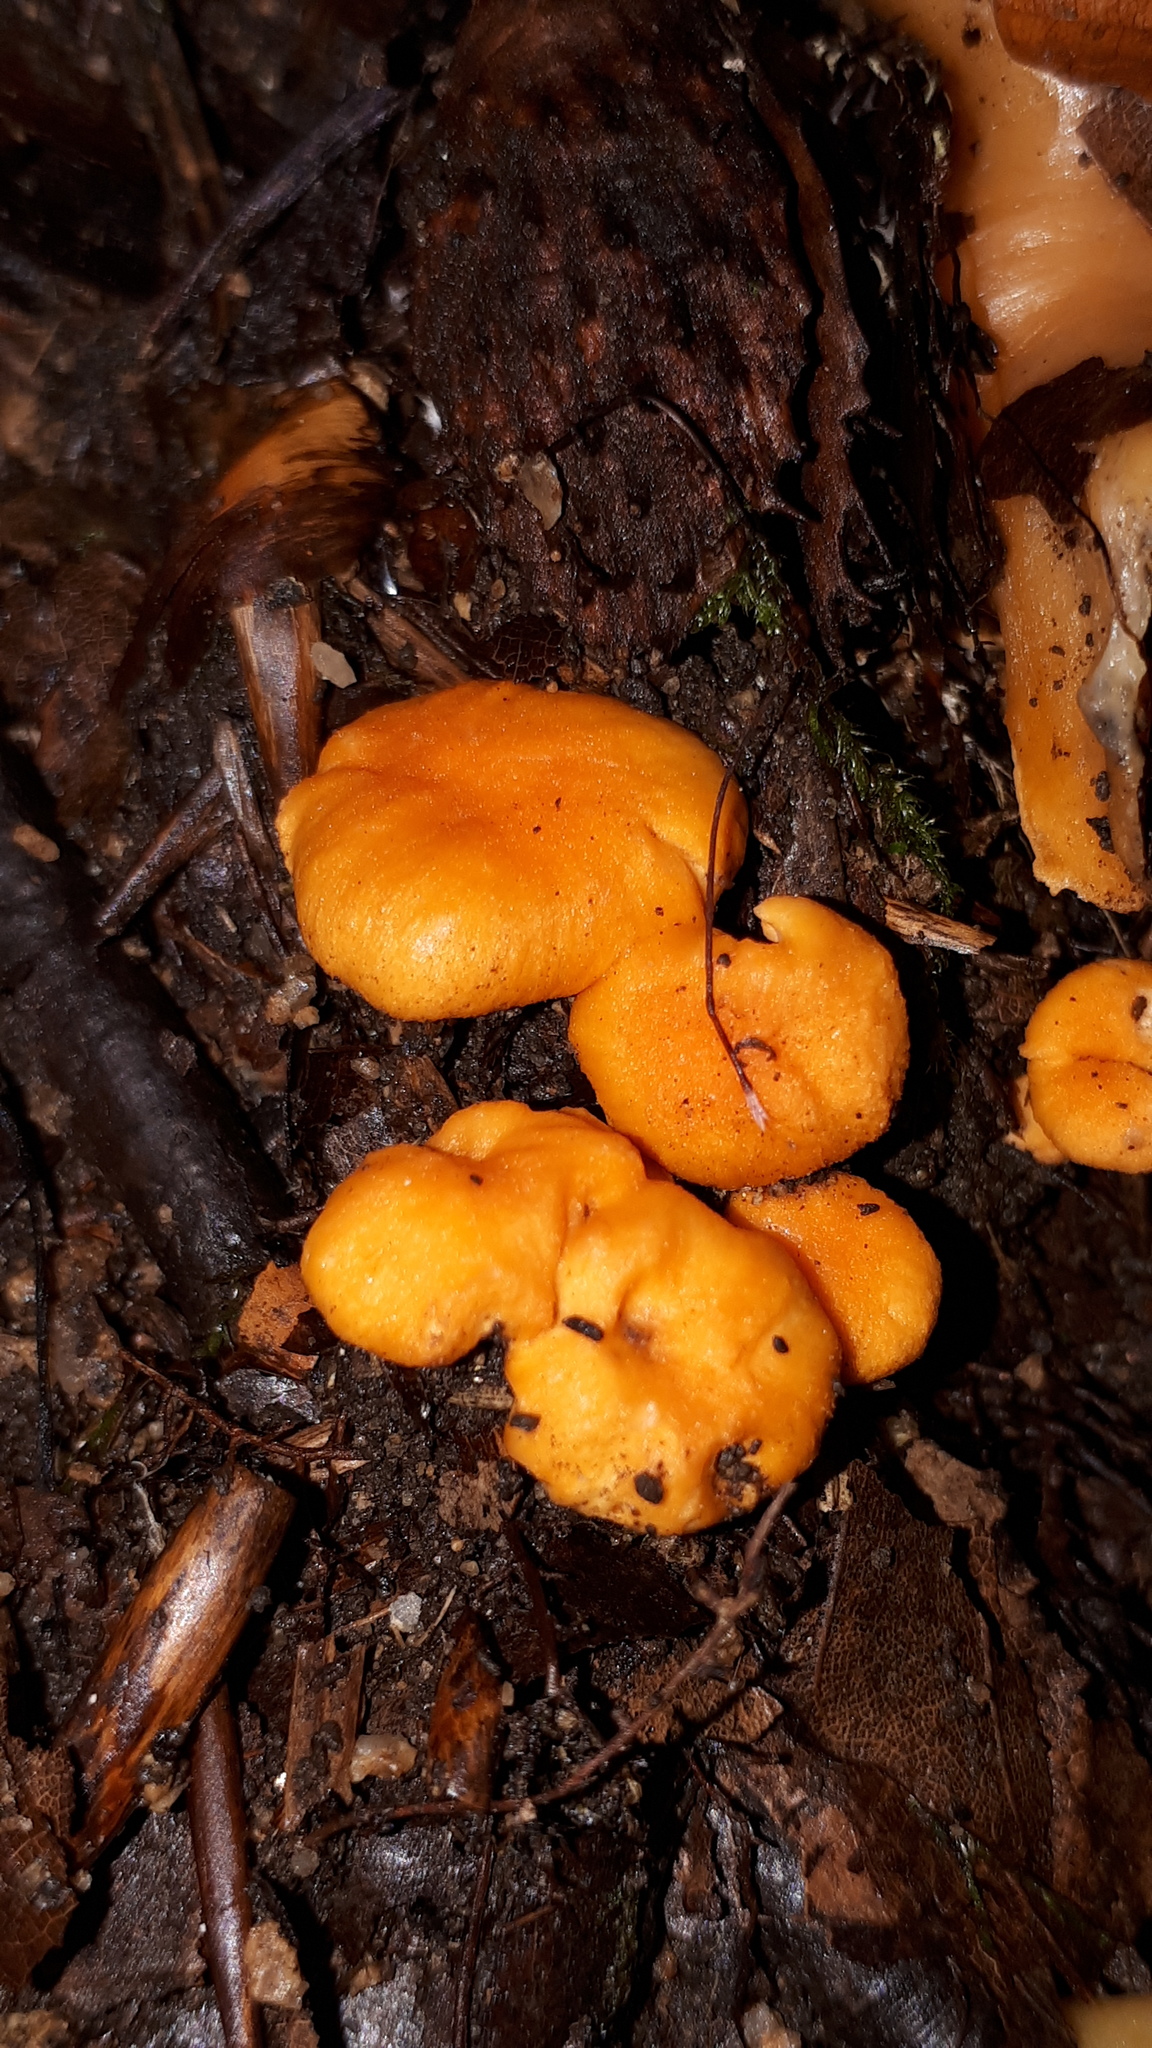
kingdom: Fungi
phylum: Basidiomycota
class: Agaricomycetes
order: Cantharellales
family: Hydnaceae
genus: Cantharellus
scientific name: Cantharellus friesii
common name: Orange chanterelle
